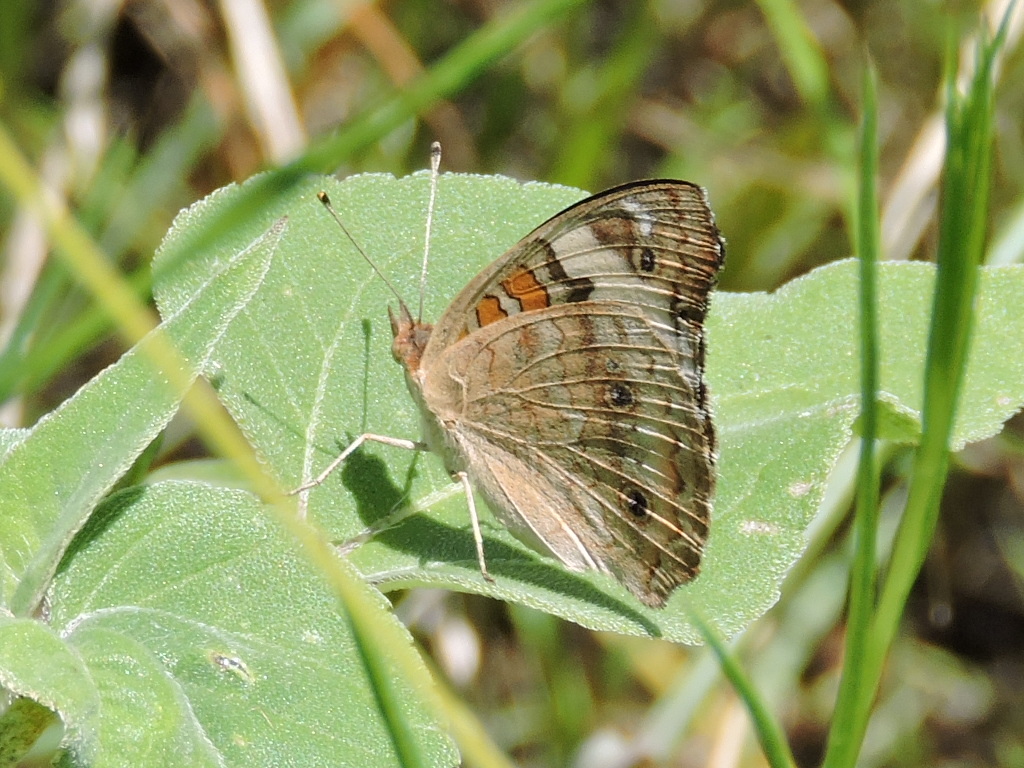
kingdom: Animalia
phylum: Arthropoda
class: Insecta
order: Lepidoptera
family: Nymphalidae
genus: Junonia
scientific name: Junonia coenia
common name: Common buckeye
